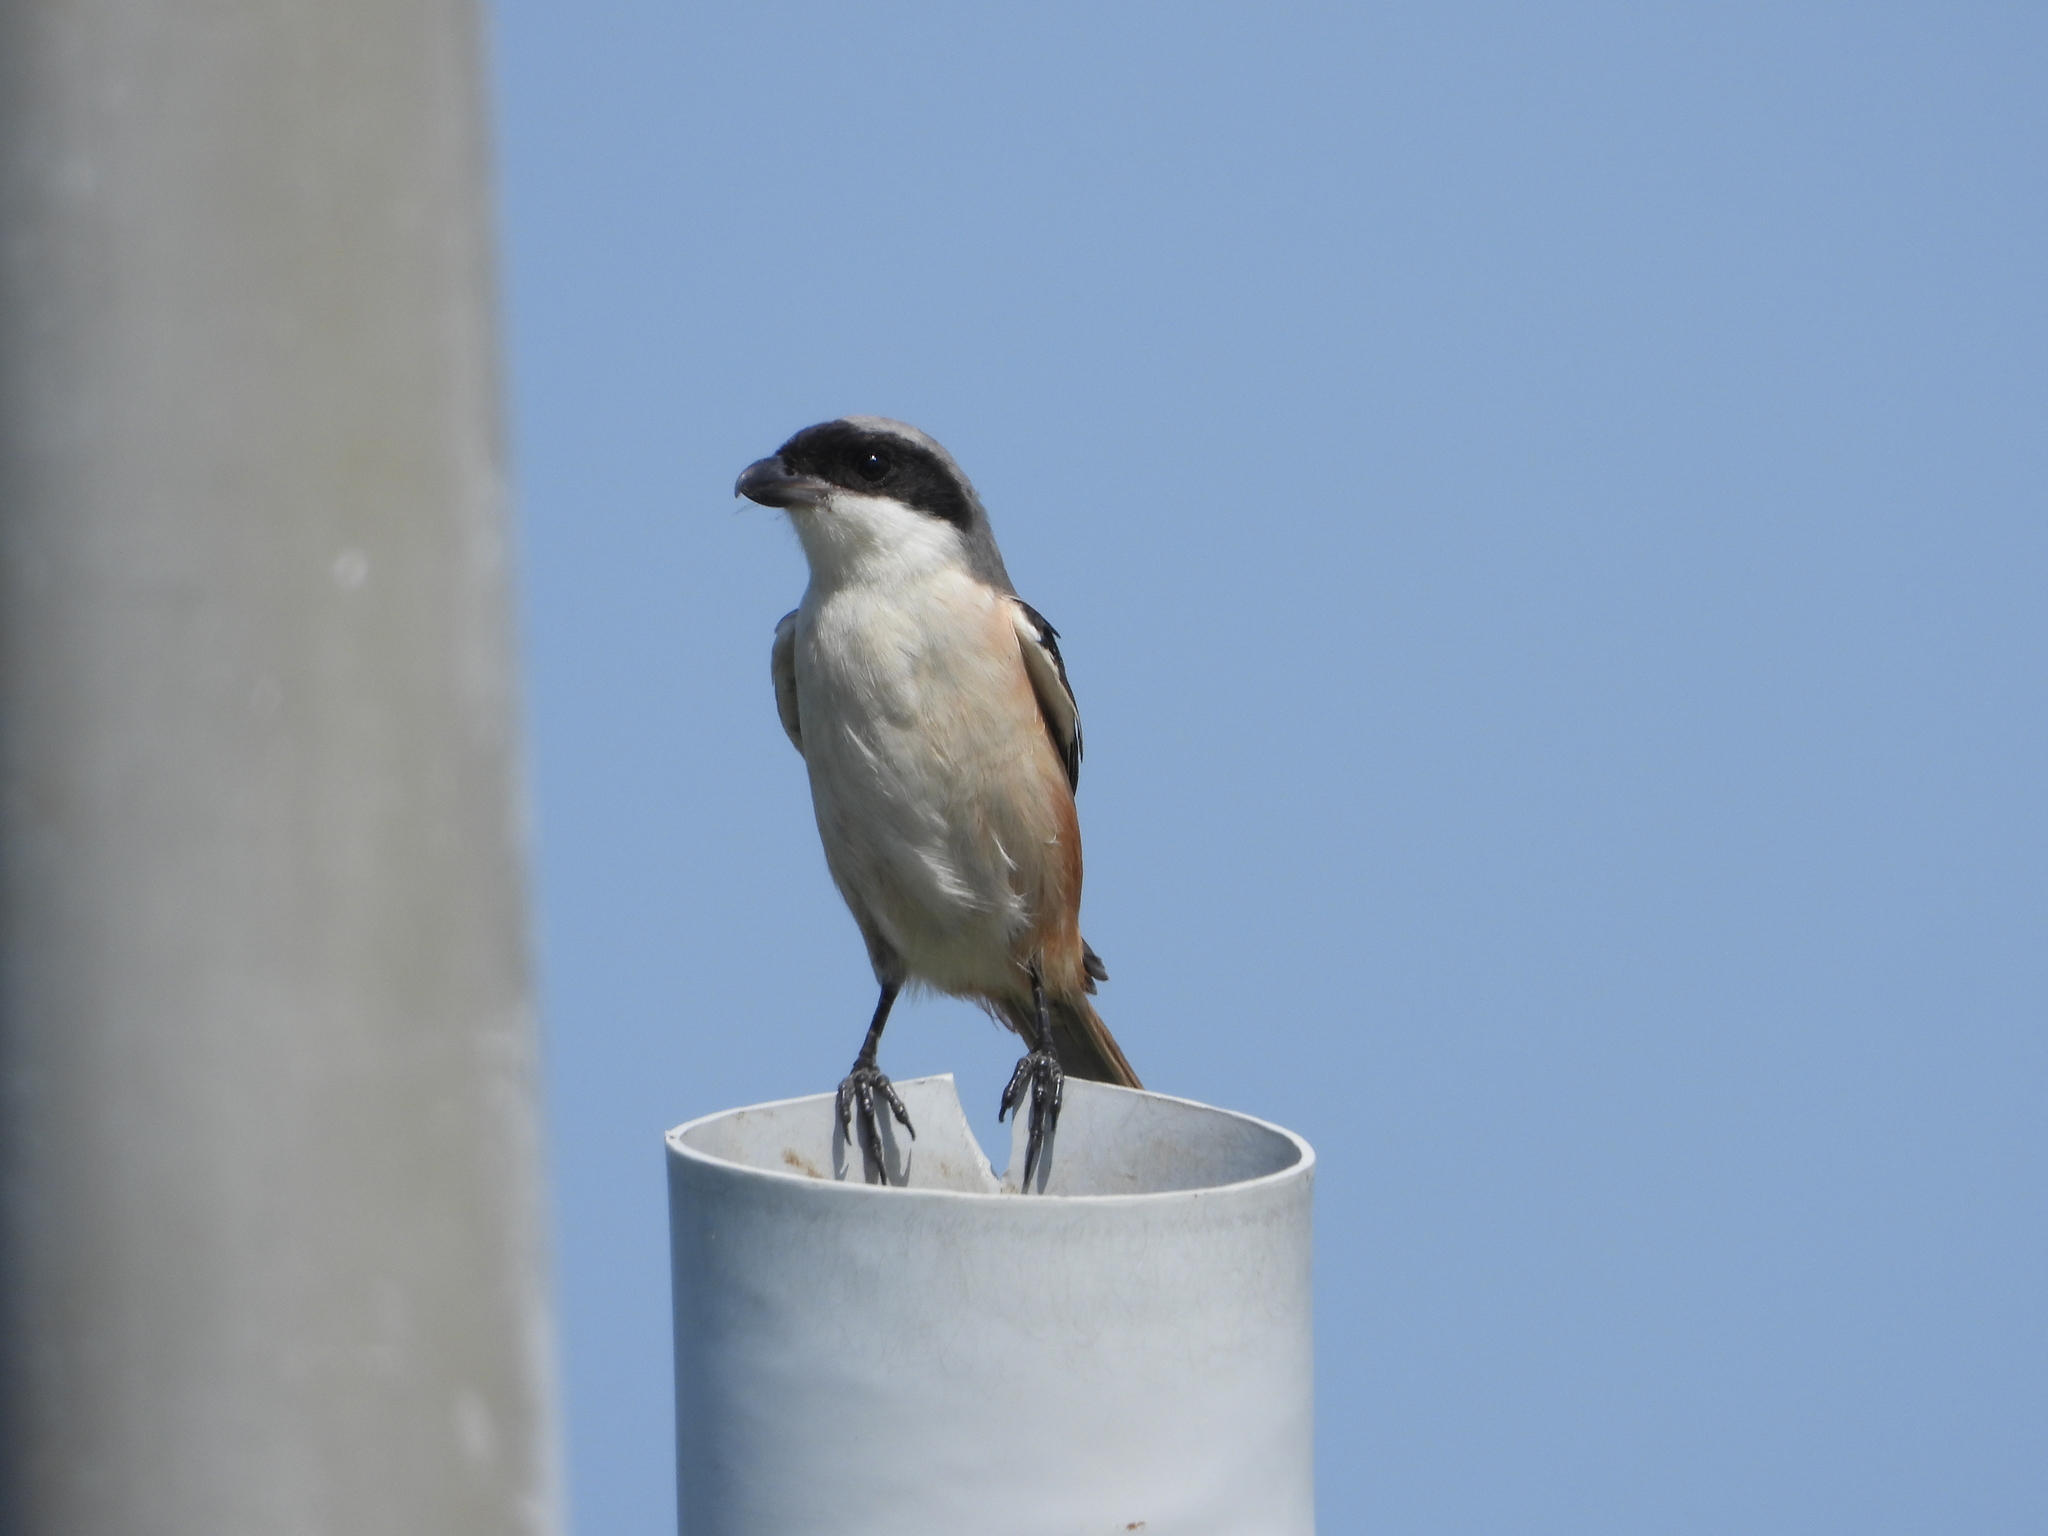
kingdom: Animalia
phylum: Chordata
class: Aves
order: Passeriformes
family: Laniidae
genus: Lanius
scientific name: Lanius schach
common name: Long-tailed shrike
